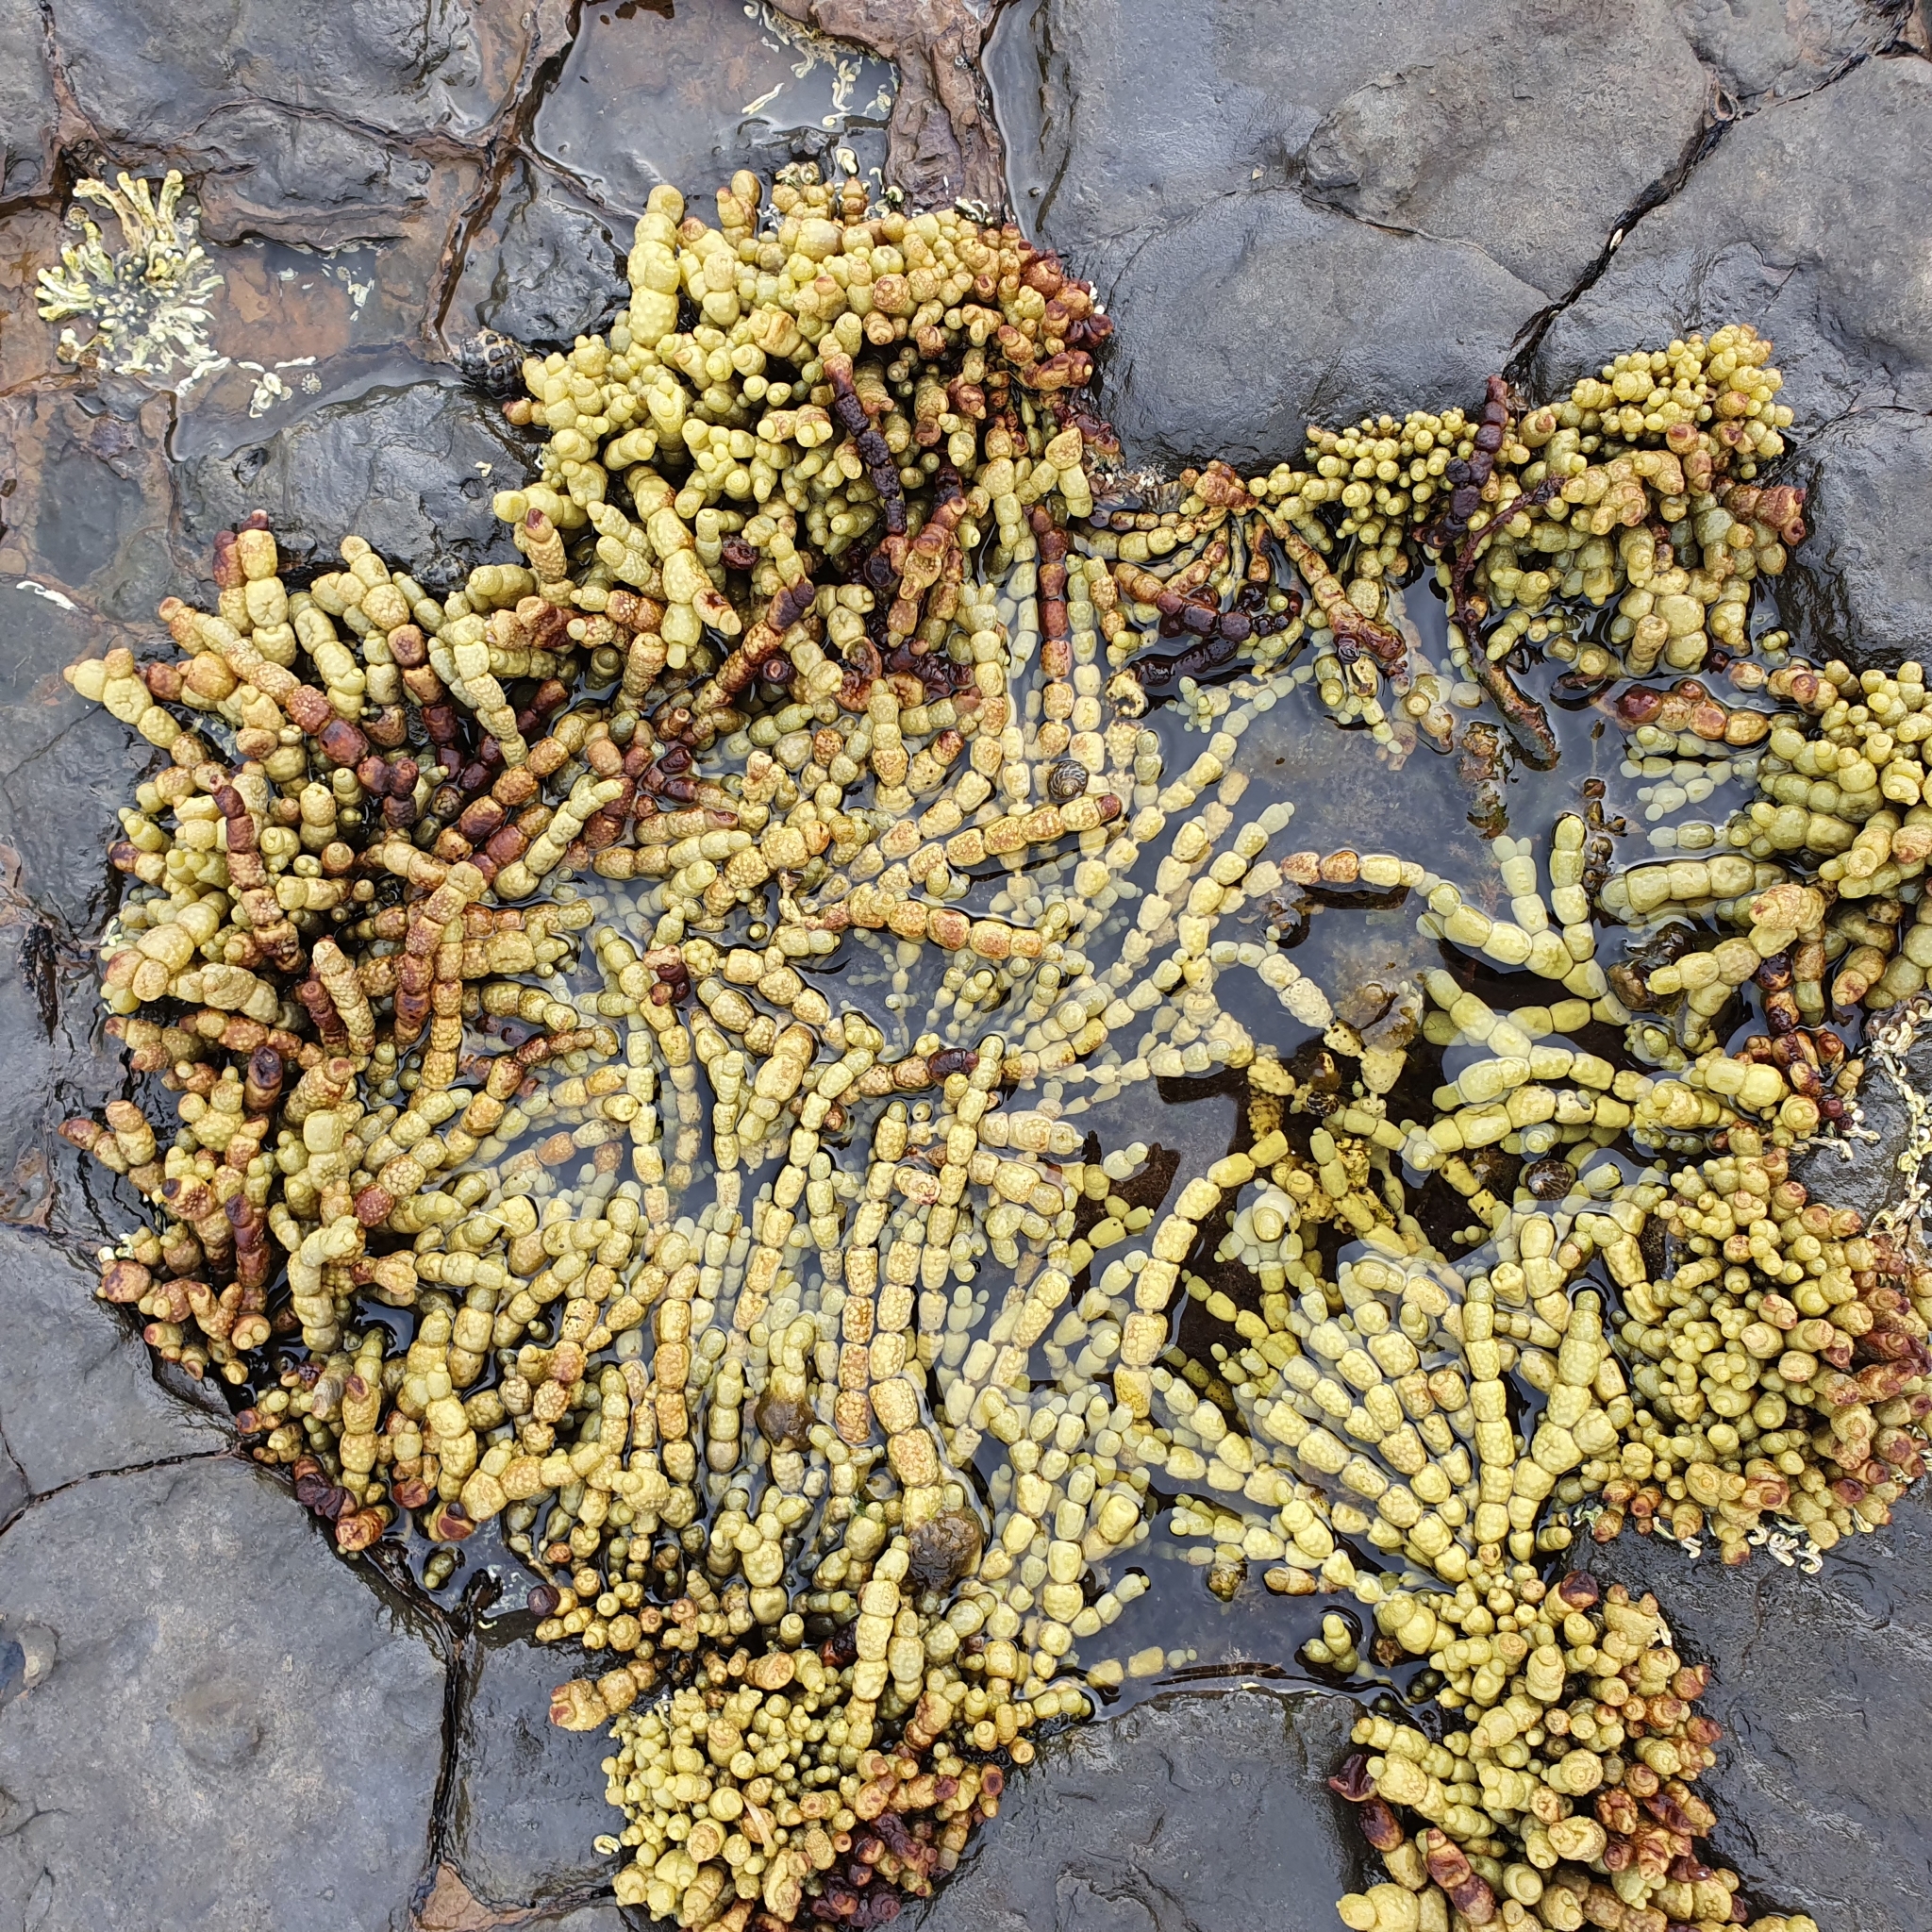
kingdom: Chromista
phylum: Ochrophyta
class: Phaeophyceae
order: Fucales
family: Hormosiraceae
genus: Hormosira
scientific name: Hormosira banksii
